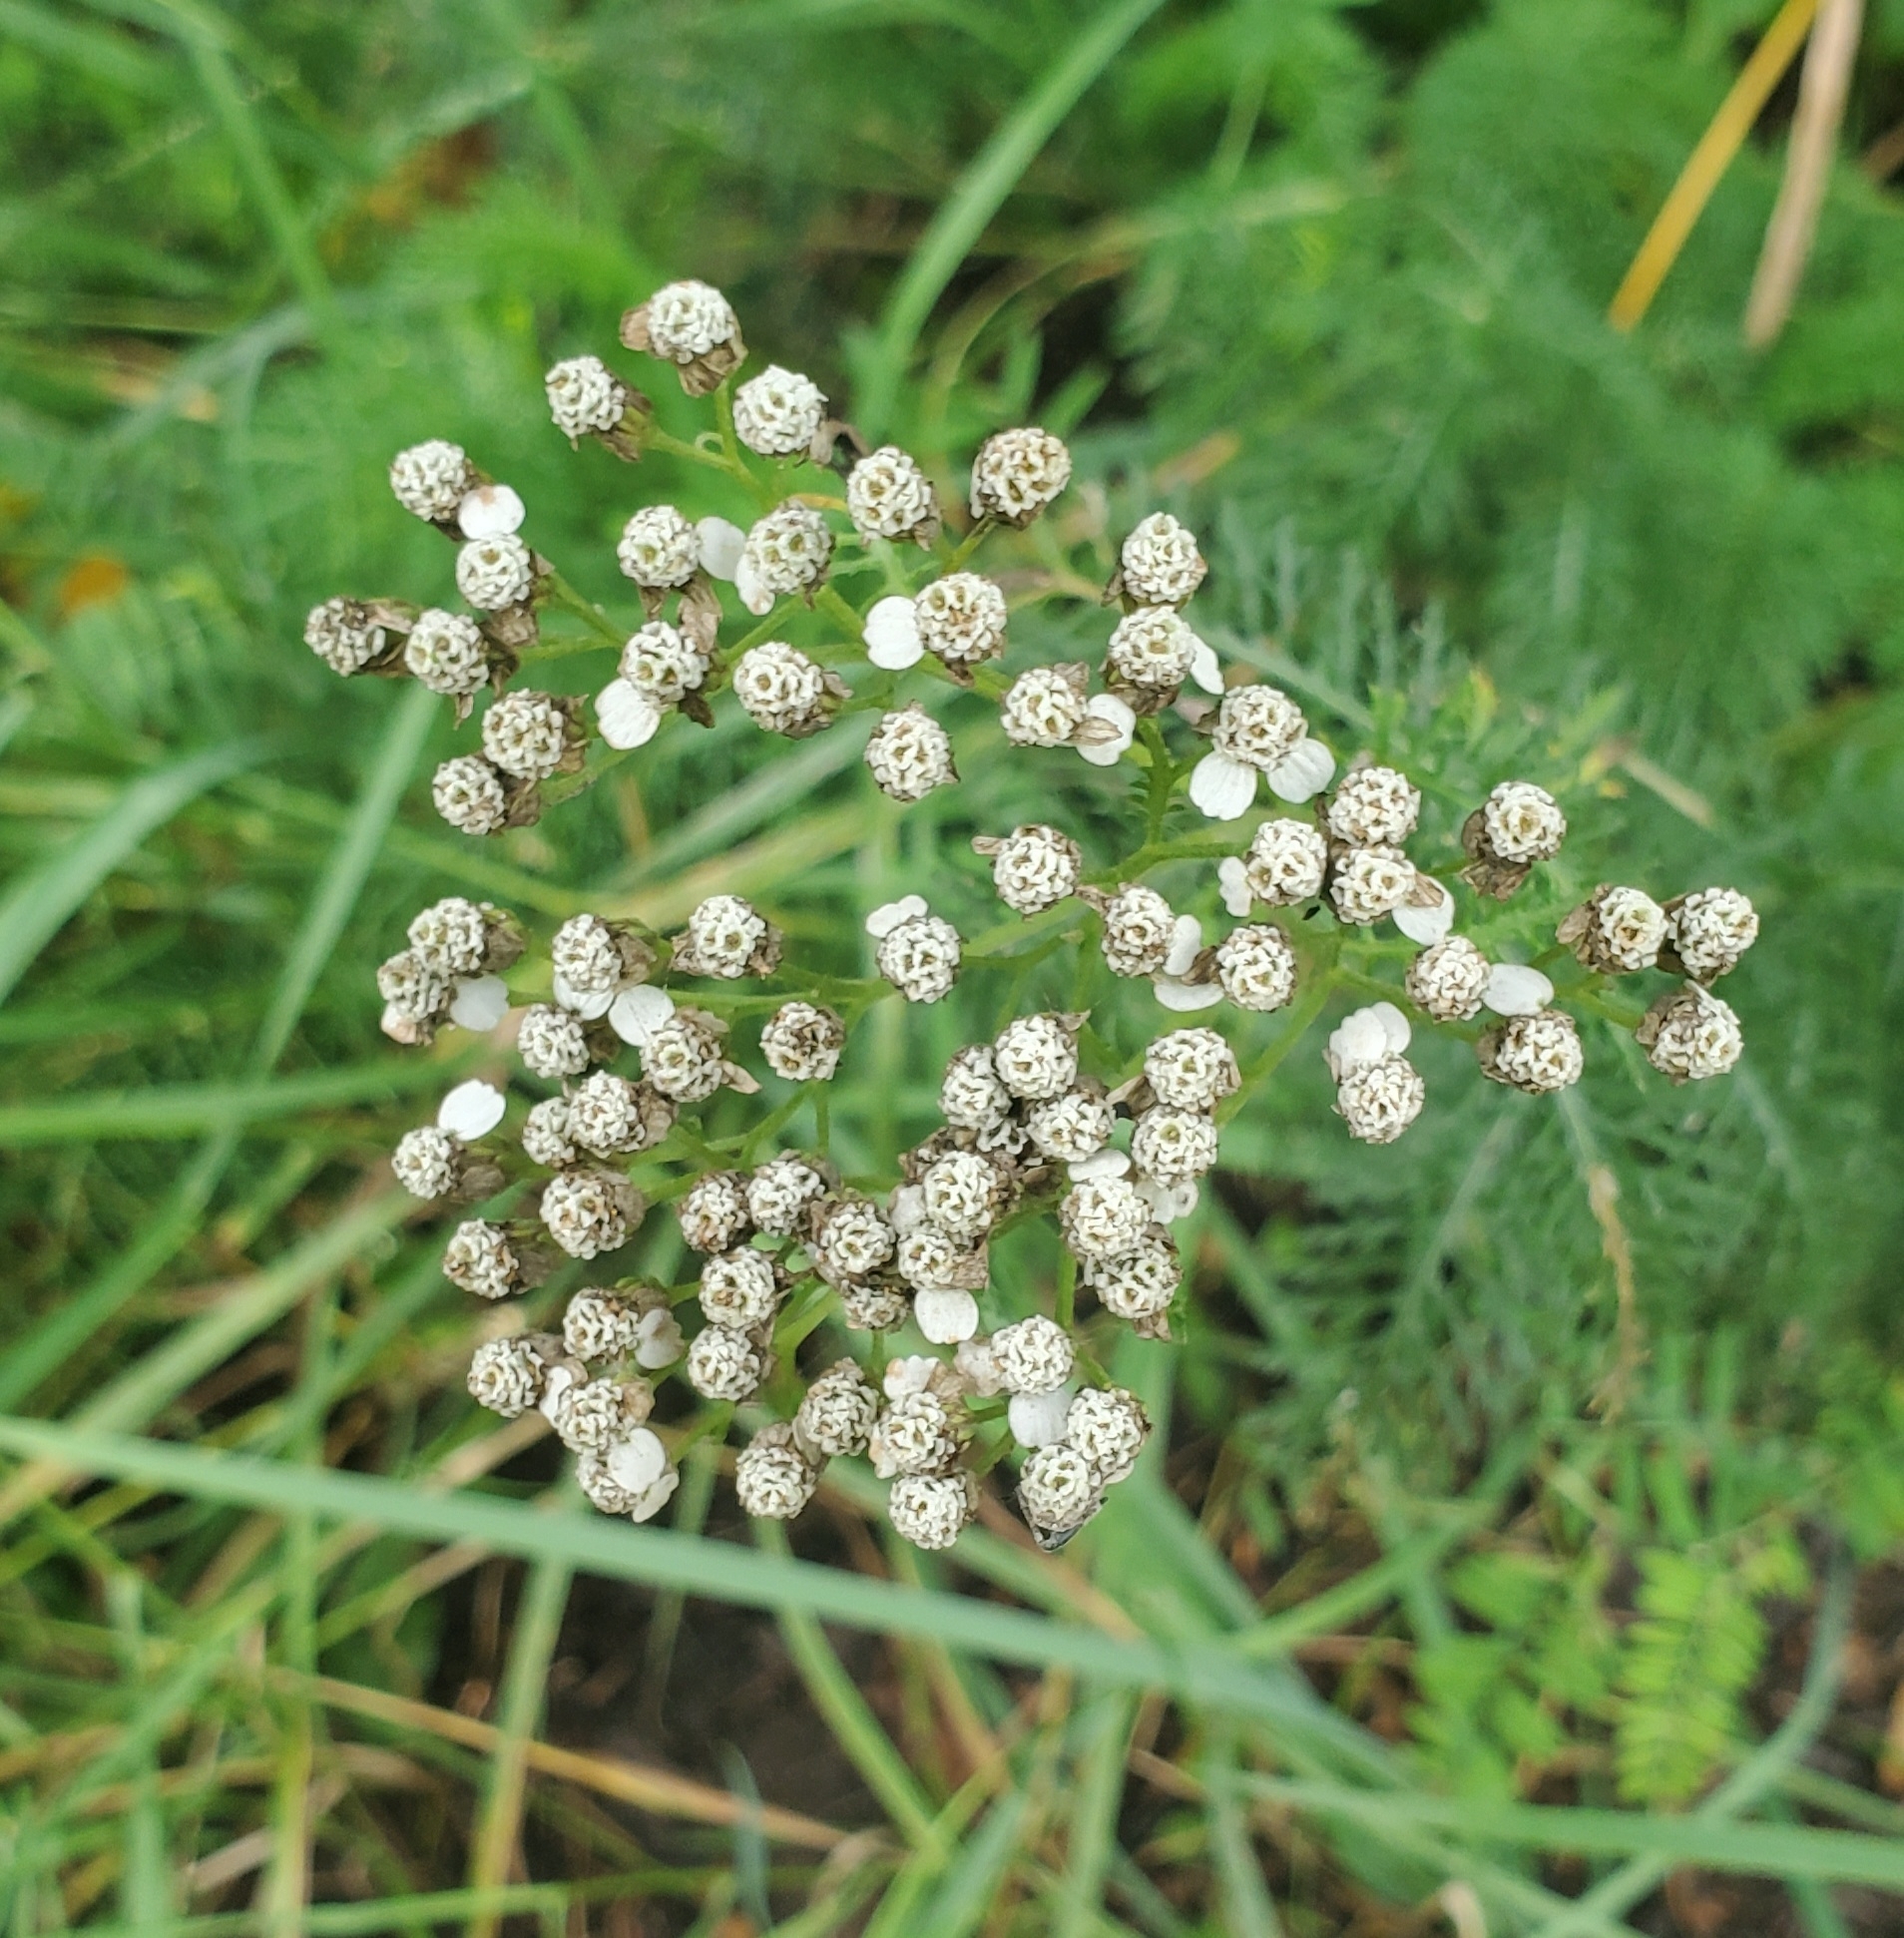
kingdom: Plantae
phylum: Tracheophyta
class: Magnoliopsida
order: Asterales
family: Asteraceae
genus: Achillea
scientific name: Achillea millefolium
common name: Yarrow
